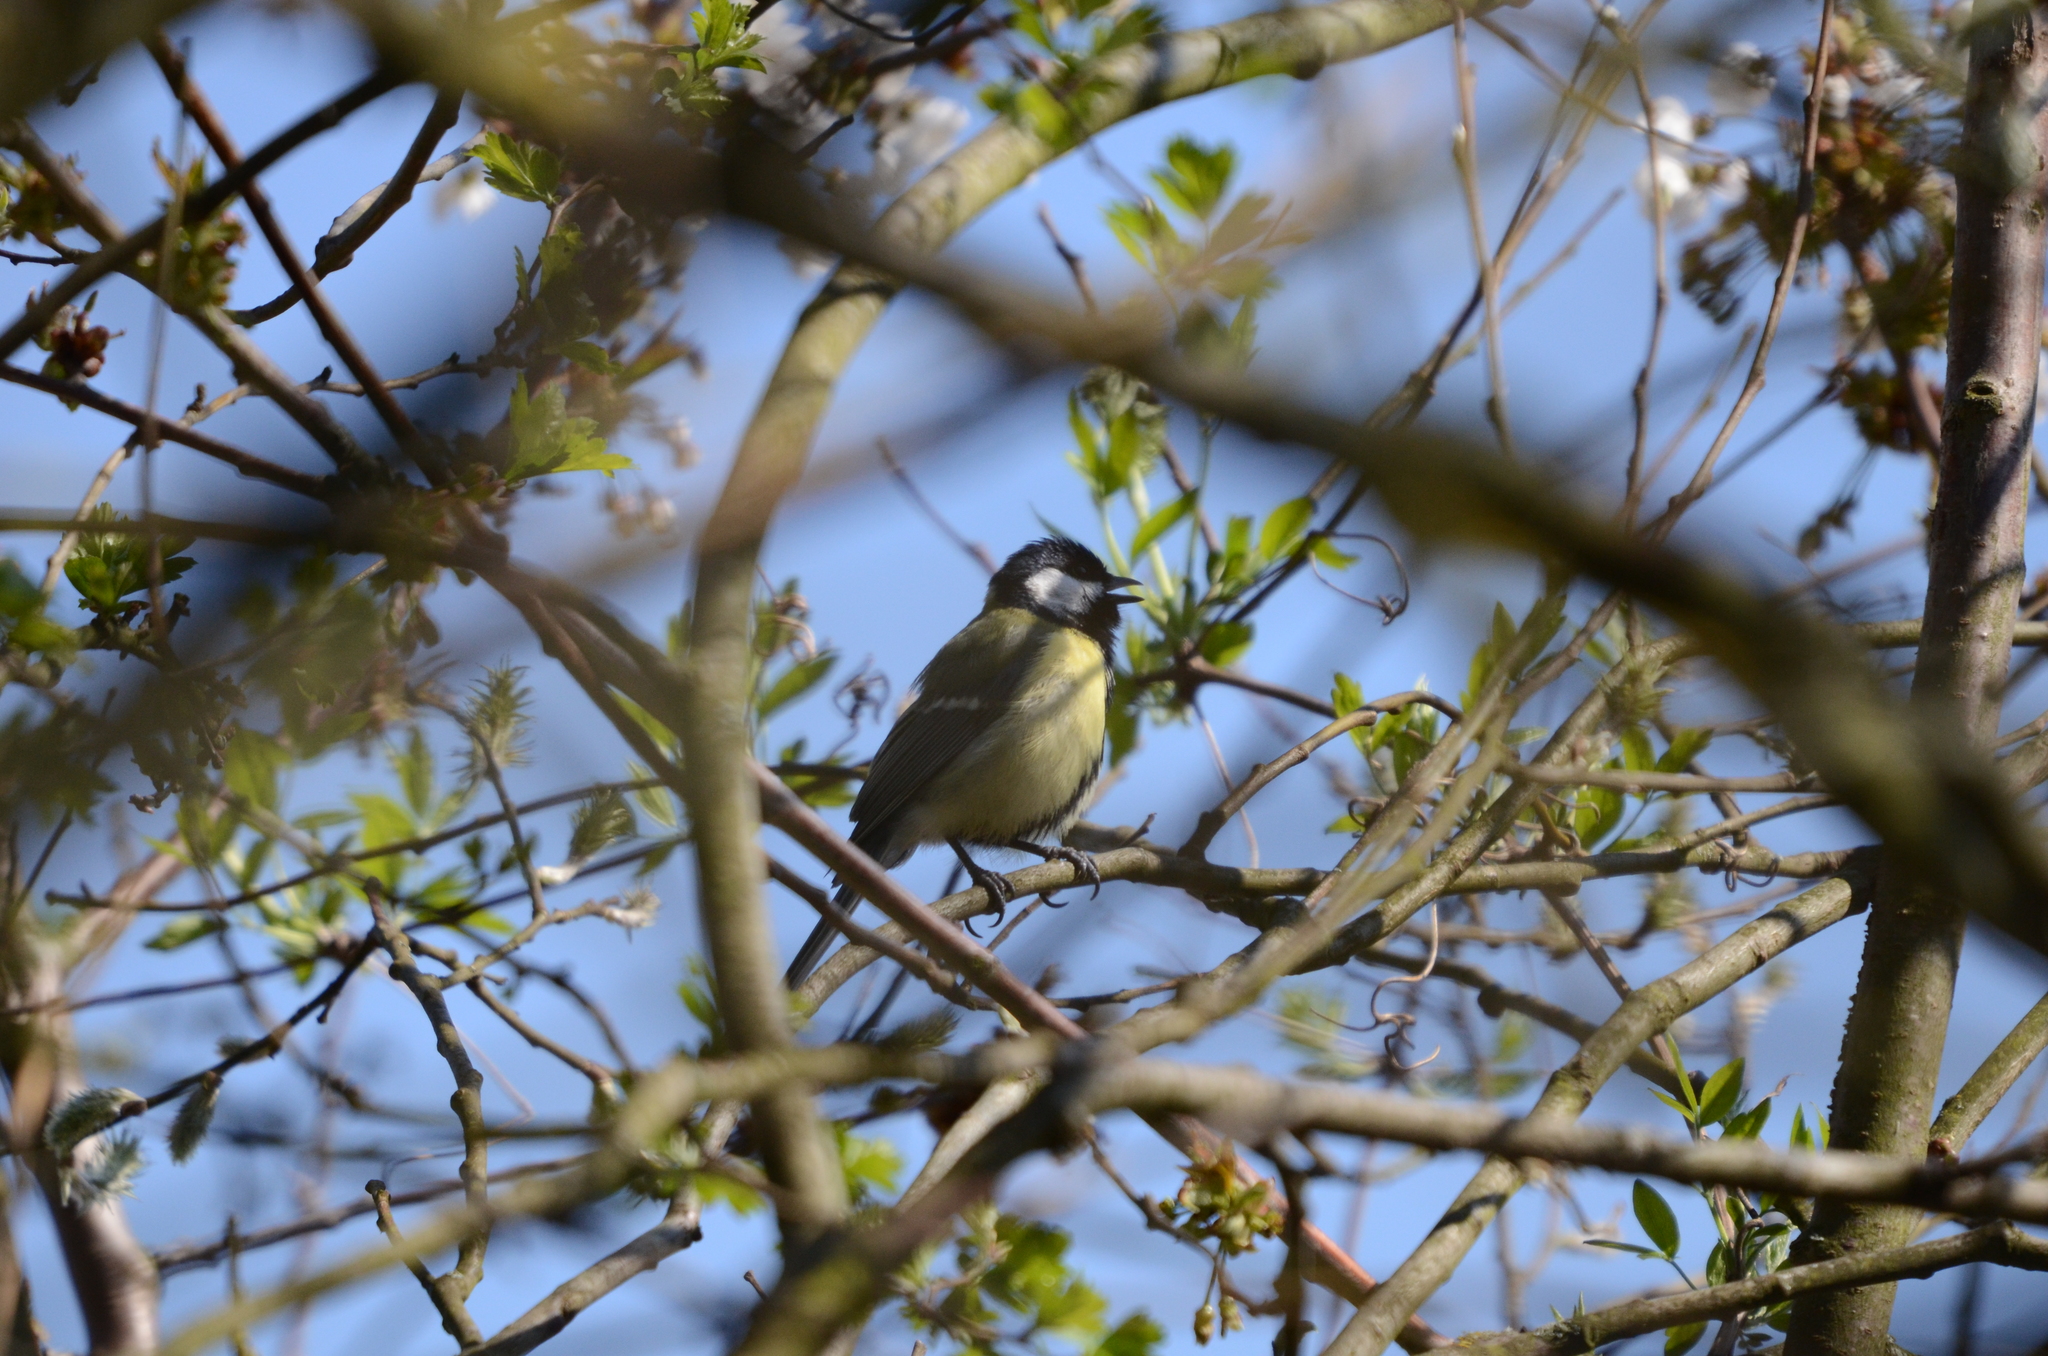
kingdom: Animalia
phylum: Chordata
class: Aves
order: Passeriformes
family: Paridae
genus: Parus
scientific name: Parus major
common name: Great tit
